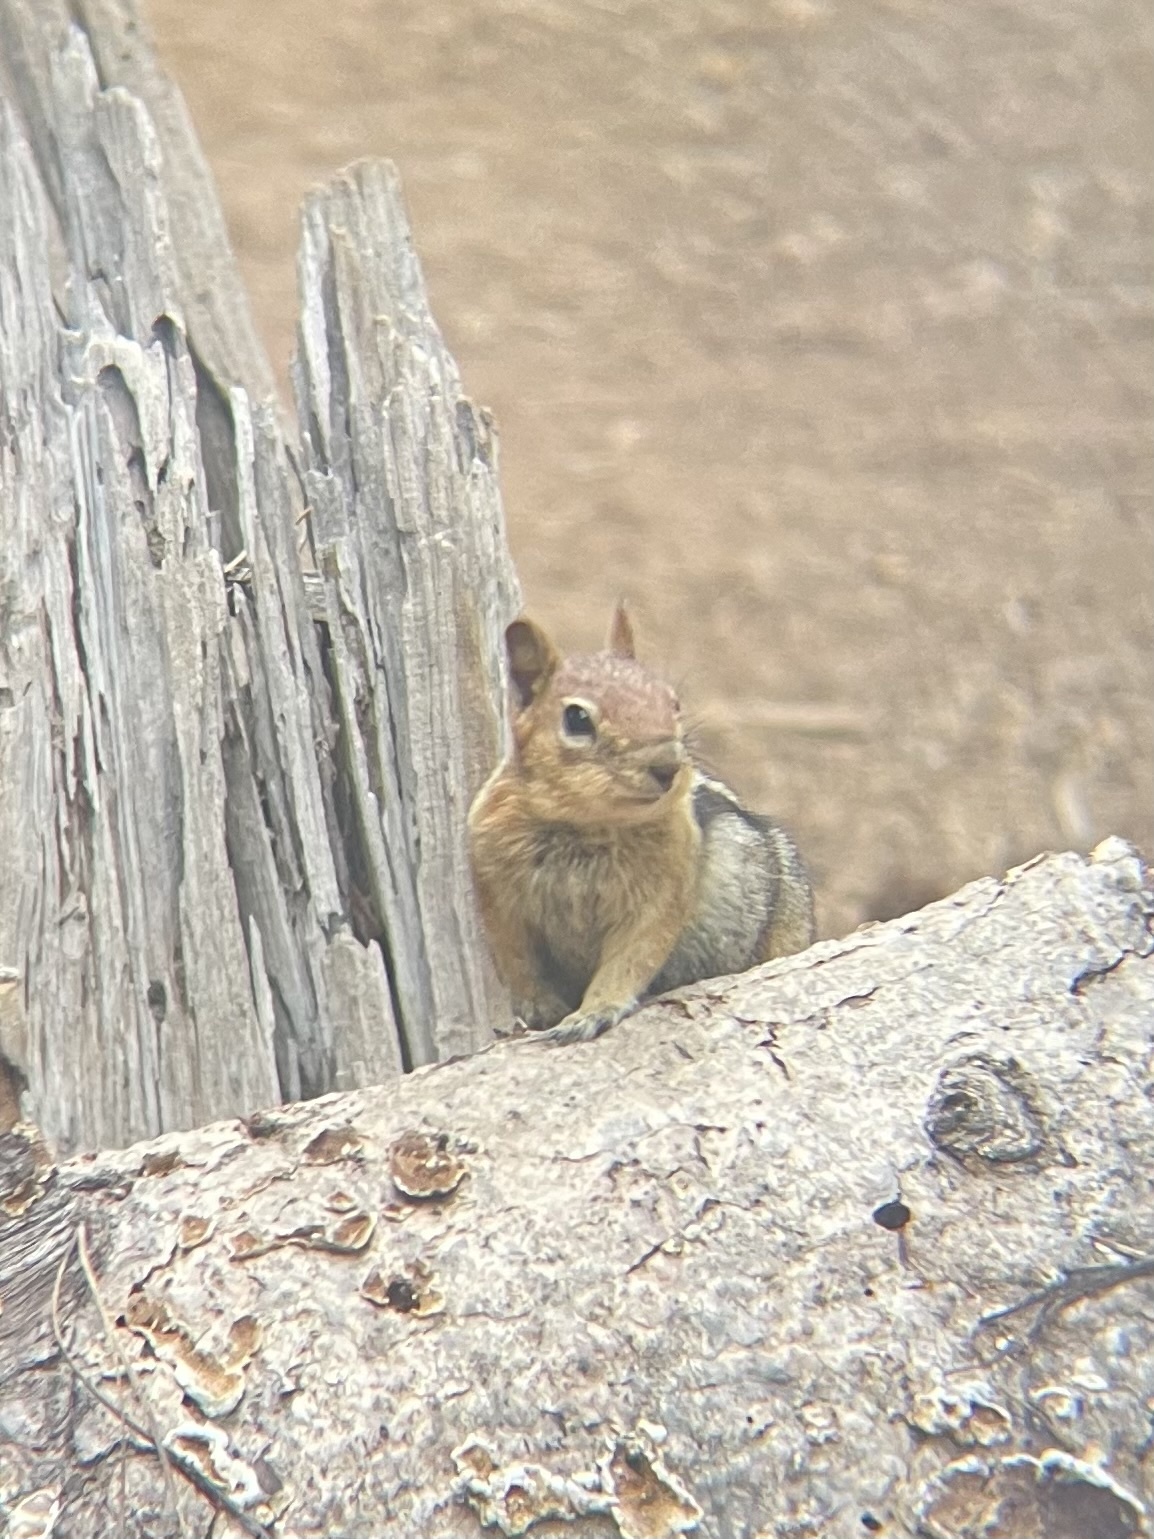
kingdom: Animalia
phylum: Chordata
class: Mammalia
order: Rodentia
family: Sciuridae
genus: Callospermophilus
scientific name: Callospermophilus lateralis
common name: Golden-mantled ground squirrel
